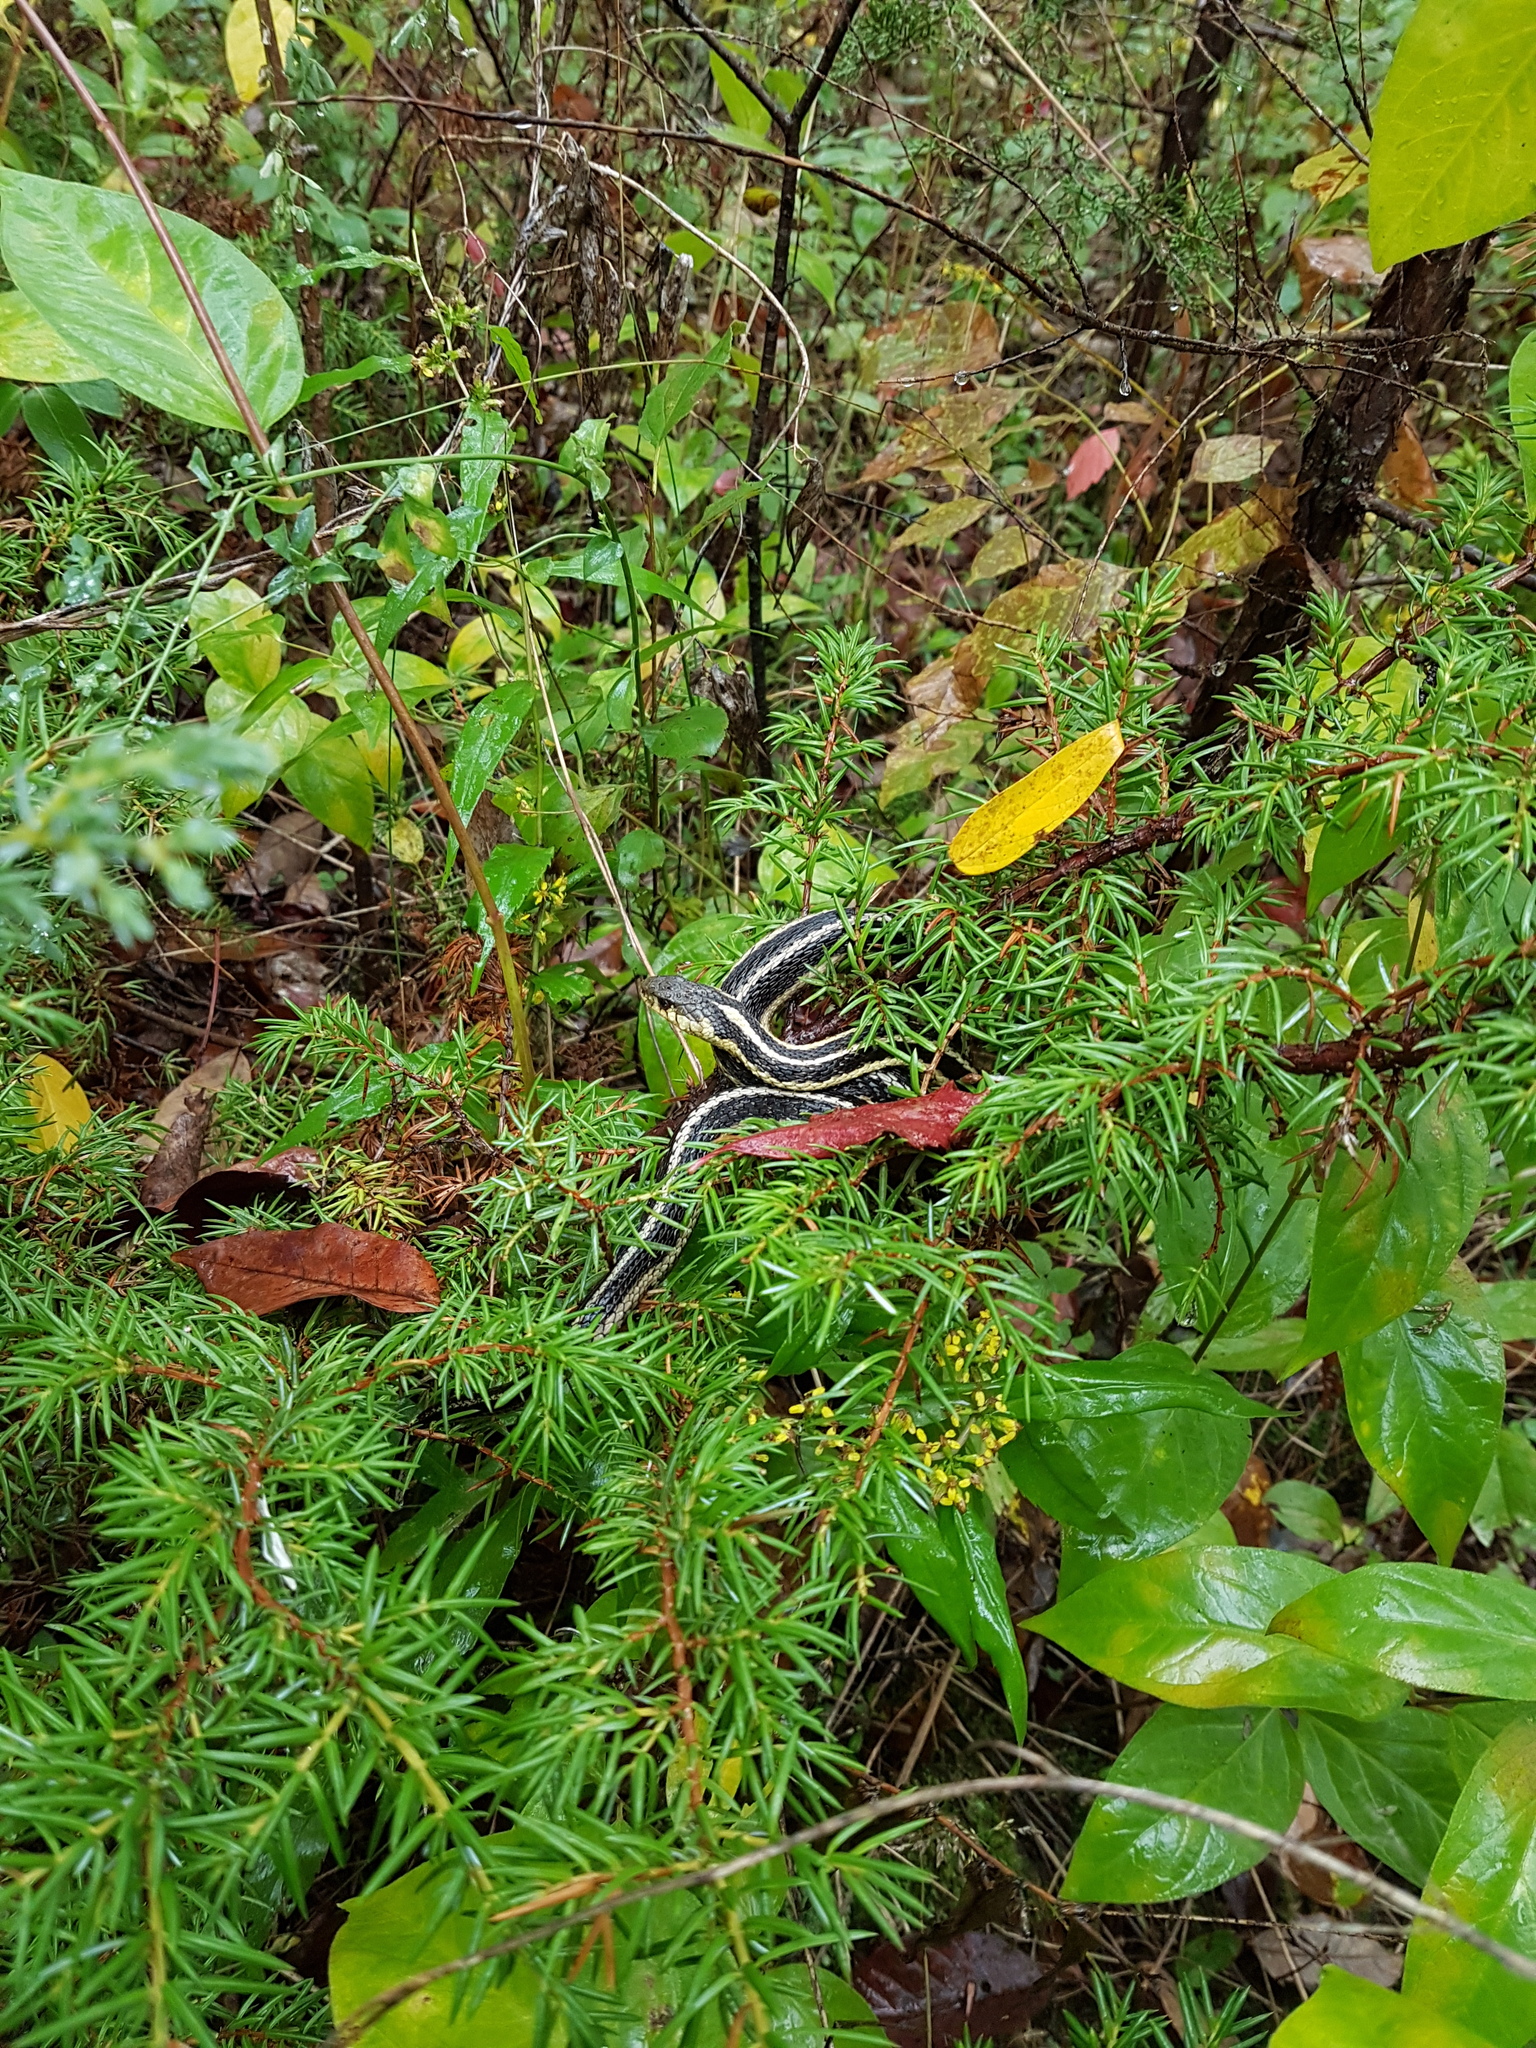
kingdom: Animalia
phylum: Chordata
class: Squamata
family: Colubridae
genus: Thamnophis
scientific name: Thamnophis sirtalis
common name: Common garter snake
